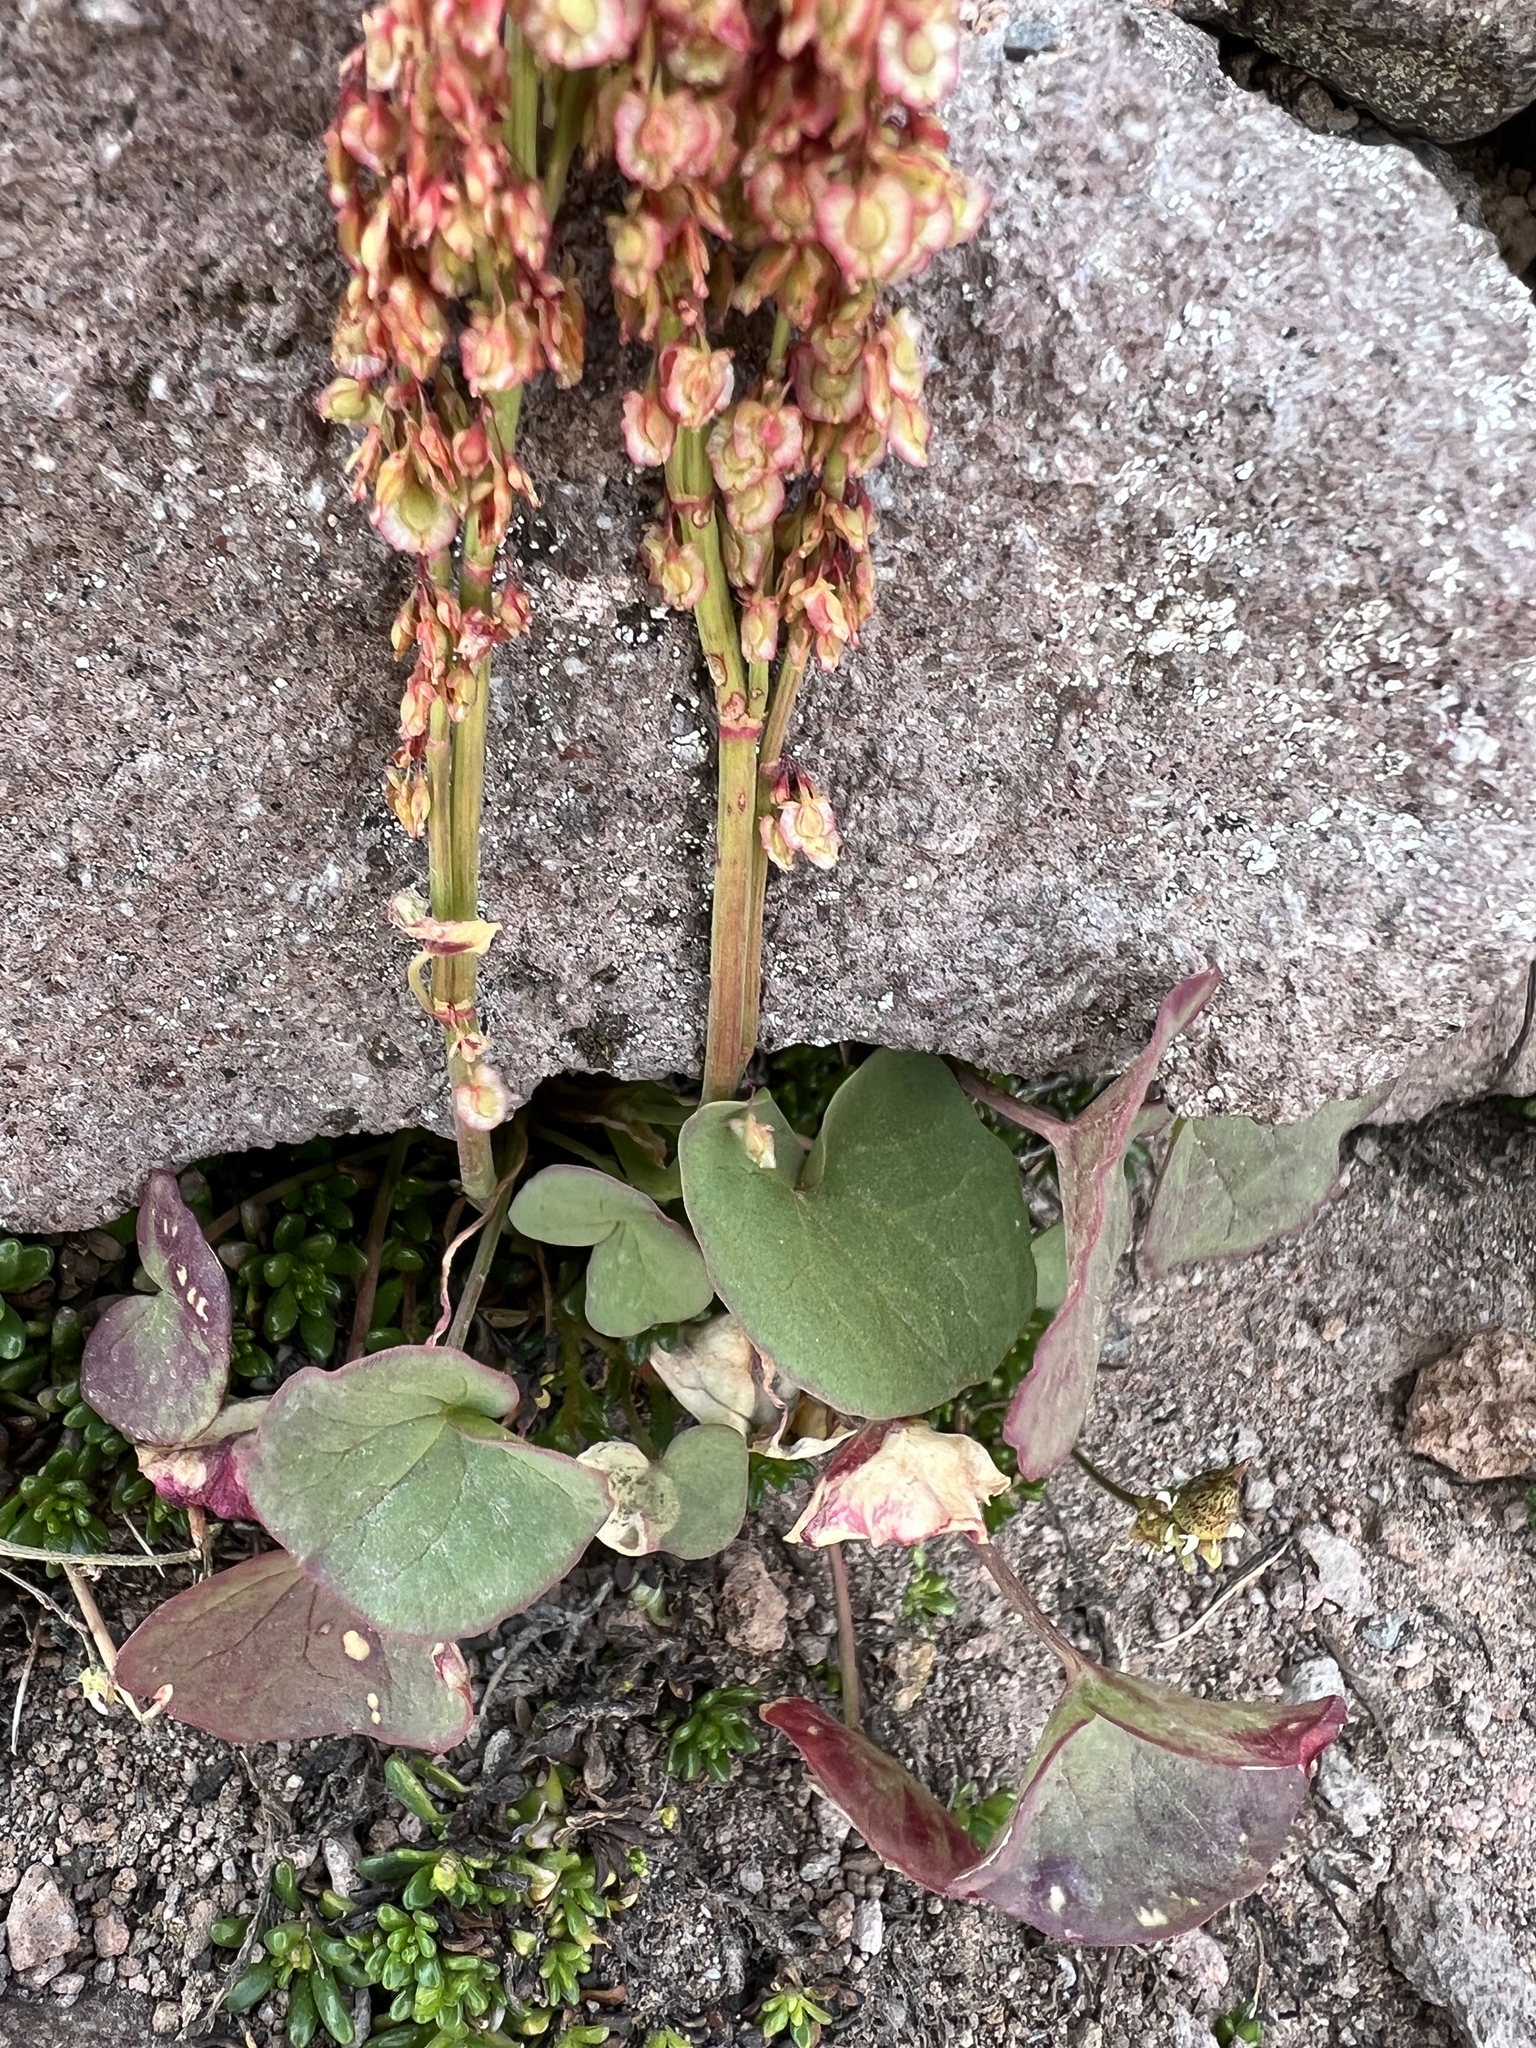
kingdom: Plantae
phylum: Tracheophyta
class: Magnoliopsida
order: Caryophyllales
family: Polygonaceae
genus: Oxyria
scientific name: Oxyria digyna
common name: Alpine mountain-sorrel
